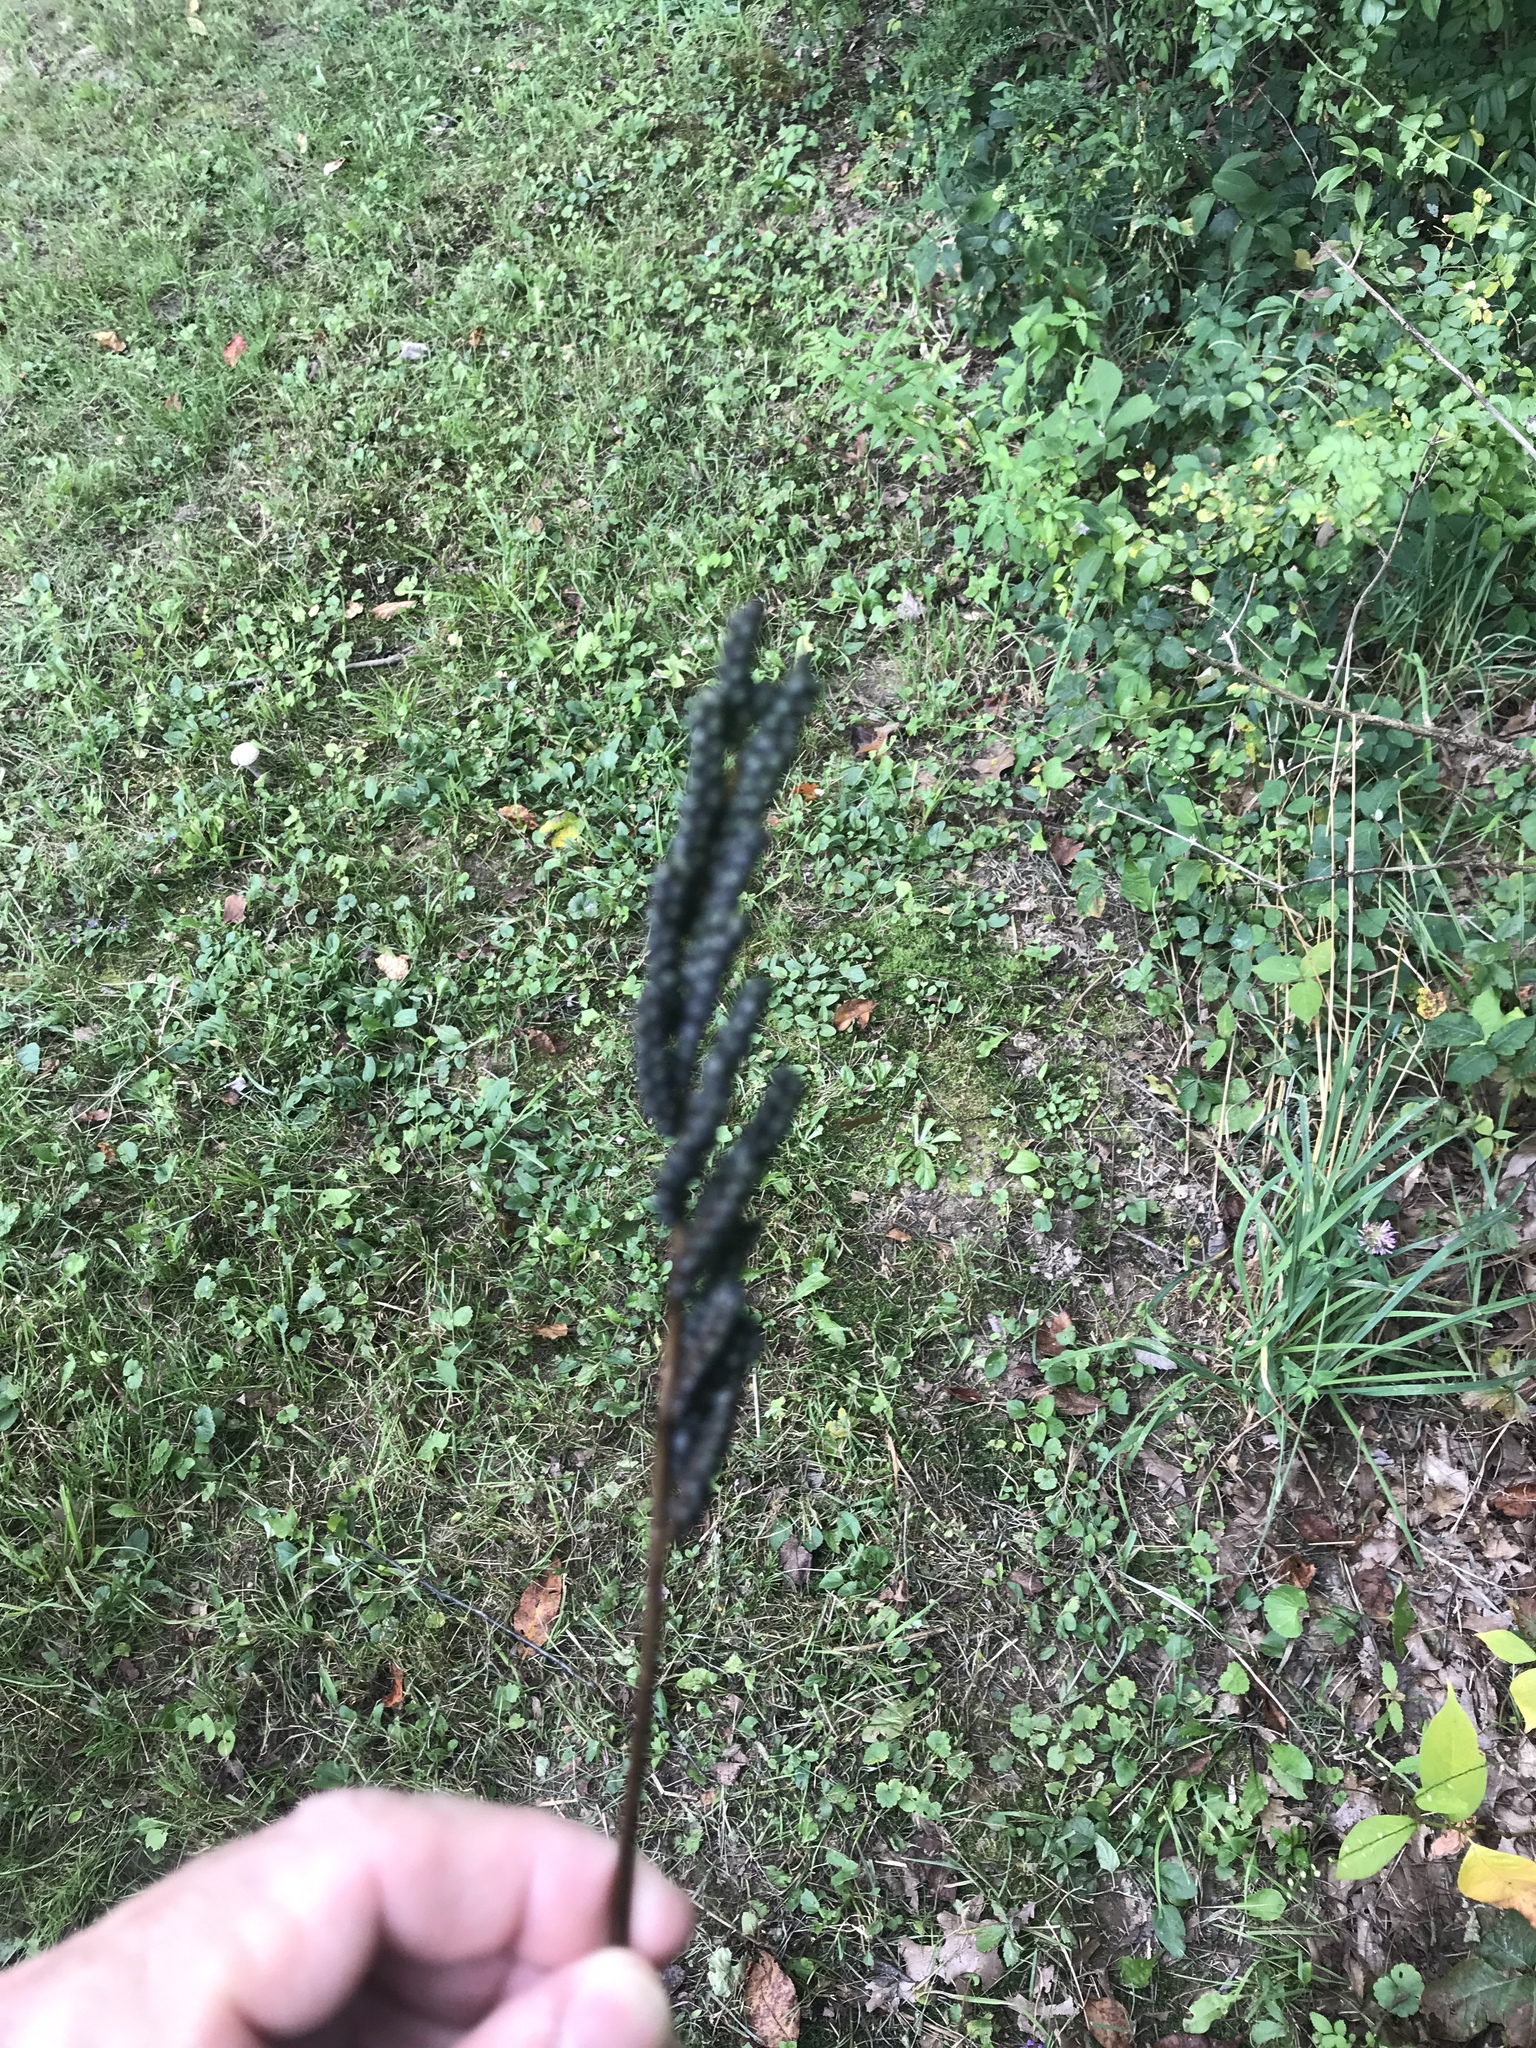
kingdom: Plantae
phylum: Tracheophyta
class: Polypodiopsida
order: Polypodiales
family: Onocleaceae
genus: Onoclea
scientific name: Onoclea sensibilis
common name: Sensitive fern
